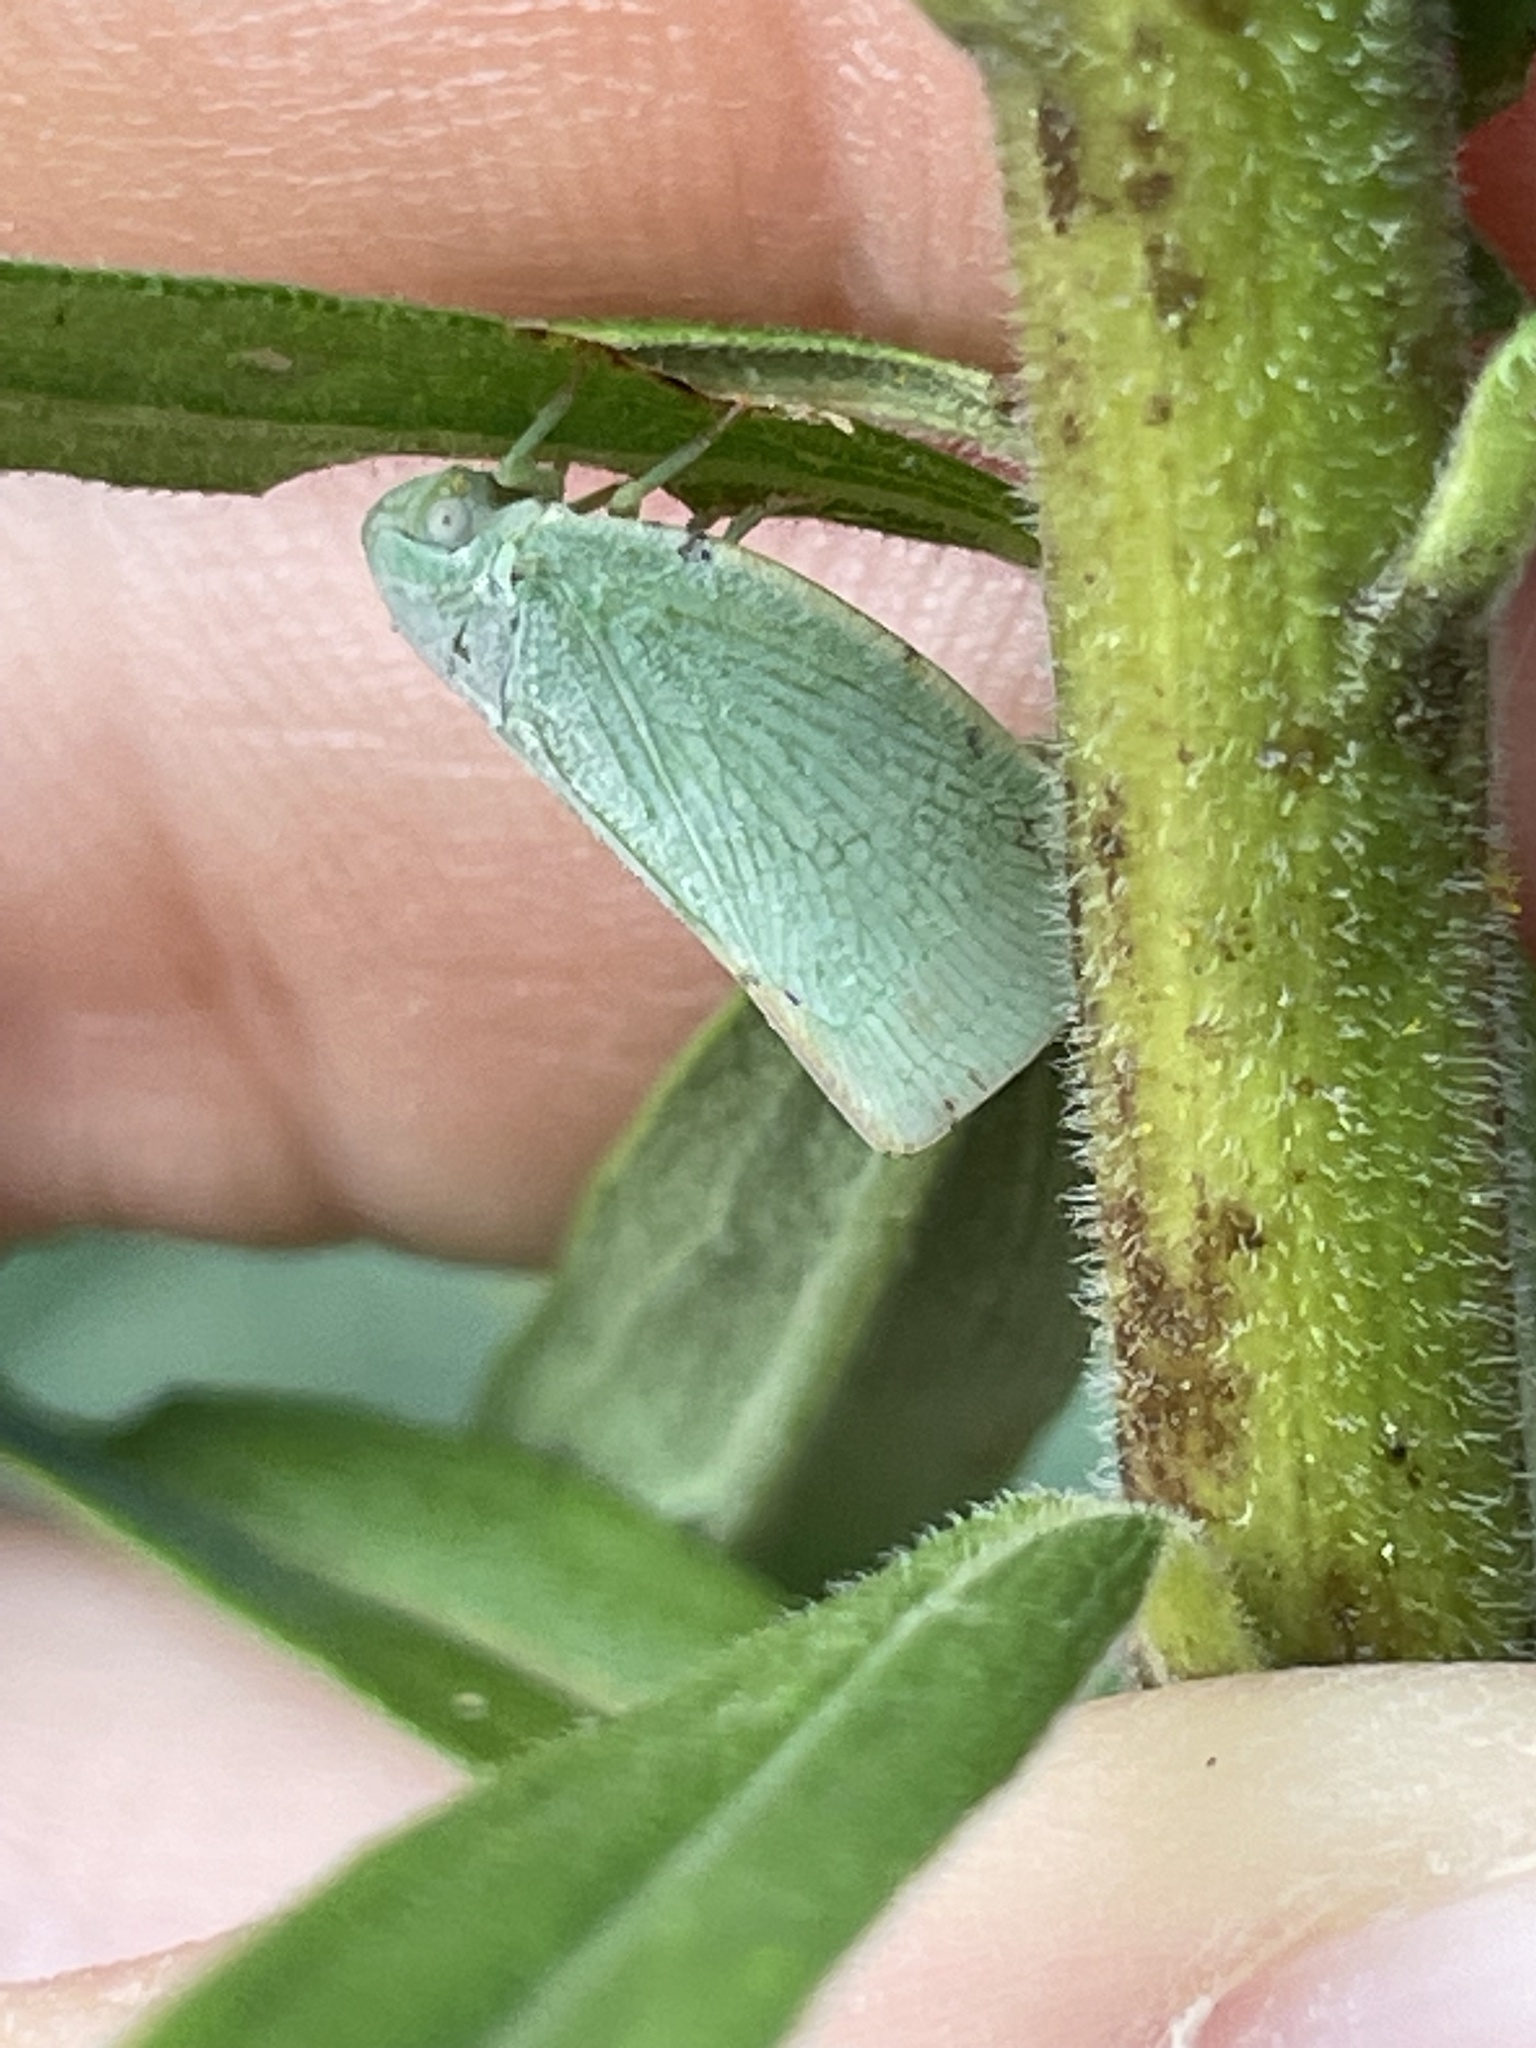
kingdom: Animalia
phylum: Arthropoda
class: Insecta
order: Hemiptera
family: Flatidae
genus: Flatormenis
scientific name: Flatormenis proxima
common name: Northern flatid planthopper
